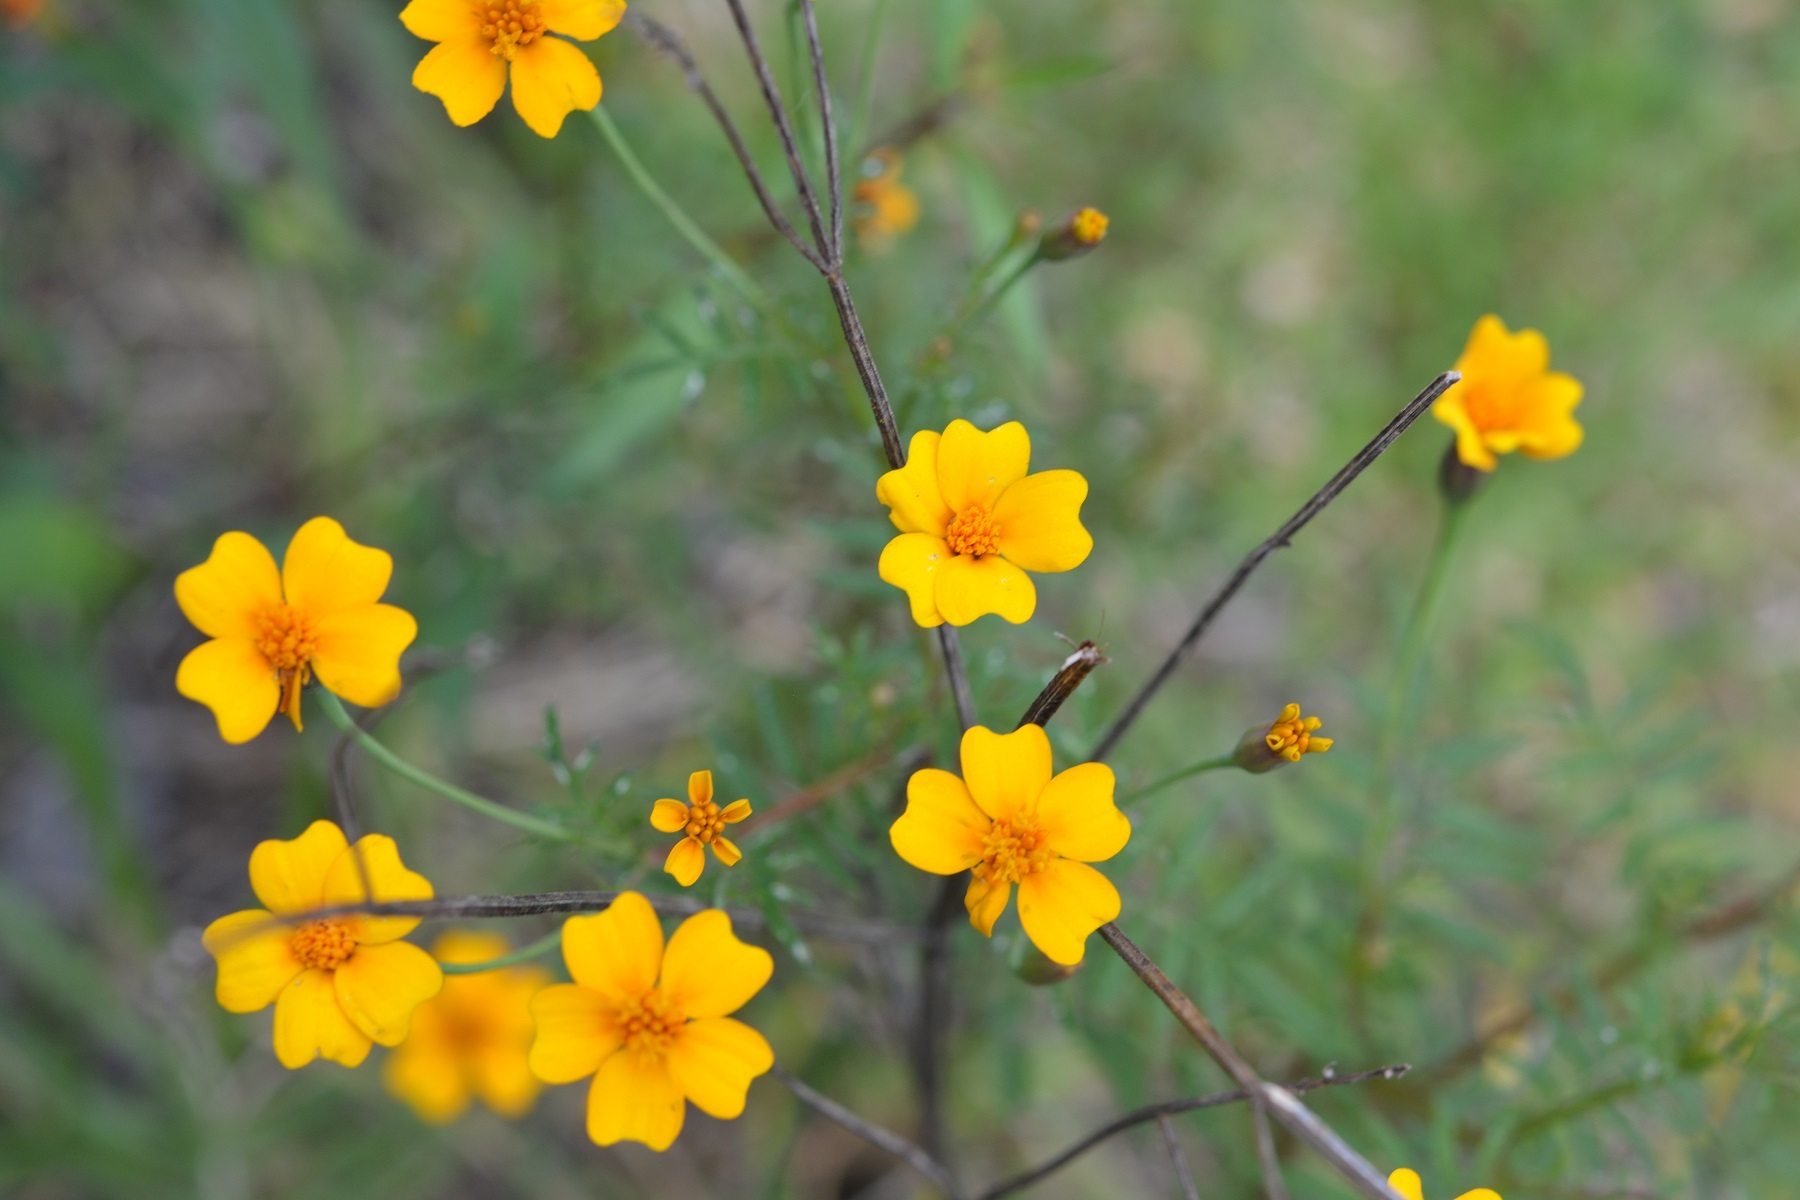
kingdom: Plantae
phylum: Tracheophyta
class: Magnoliopsida
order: Asterales
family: Asteraceae
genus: Tagetes
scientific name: Tagetes tenuifolia
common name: Signet marigold
